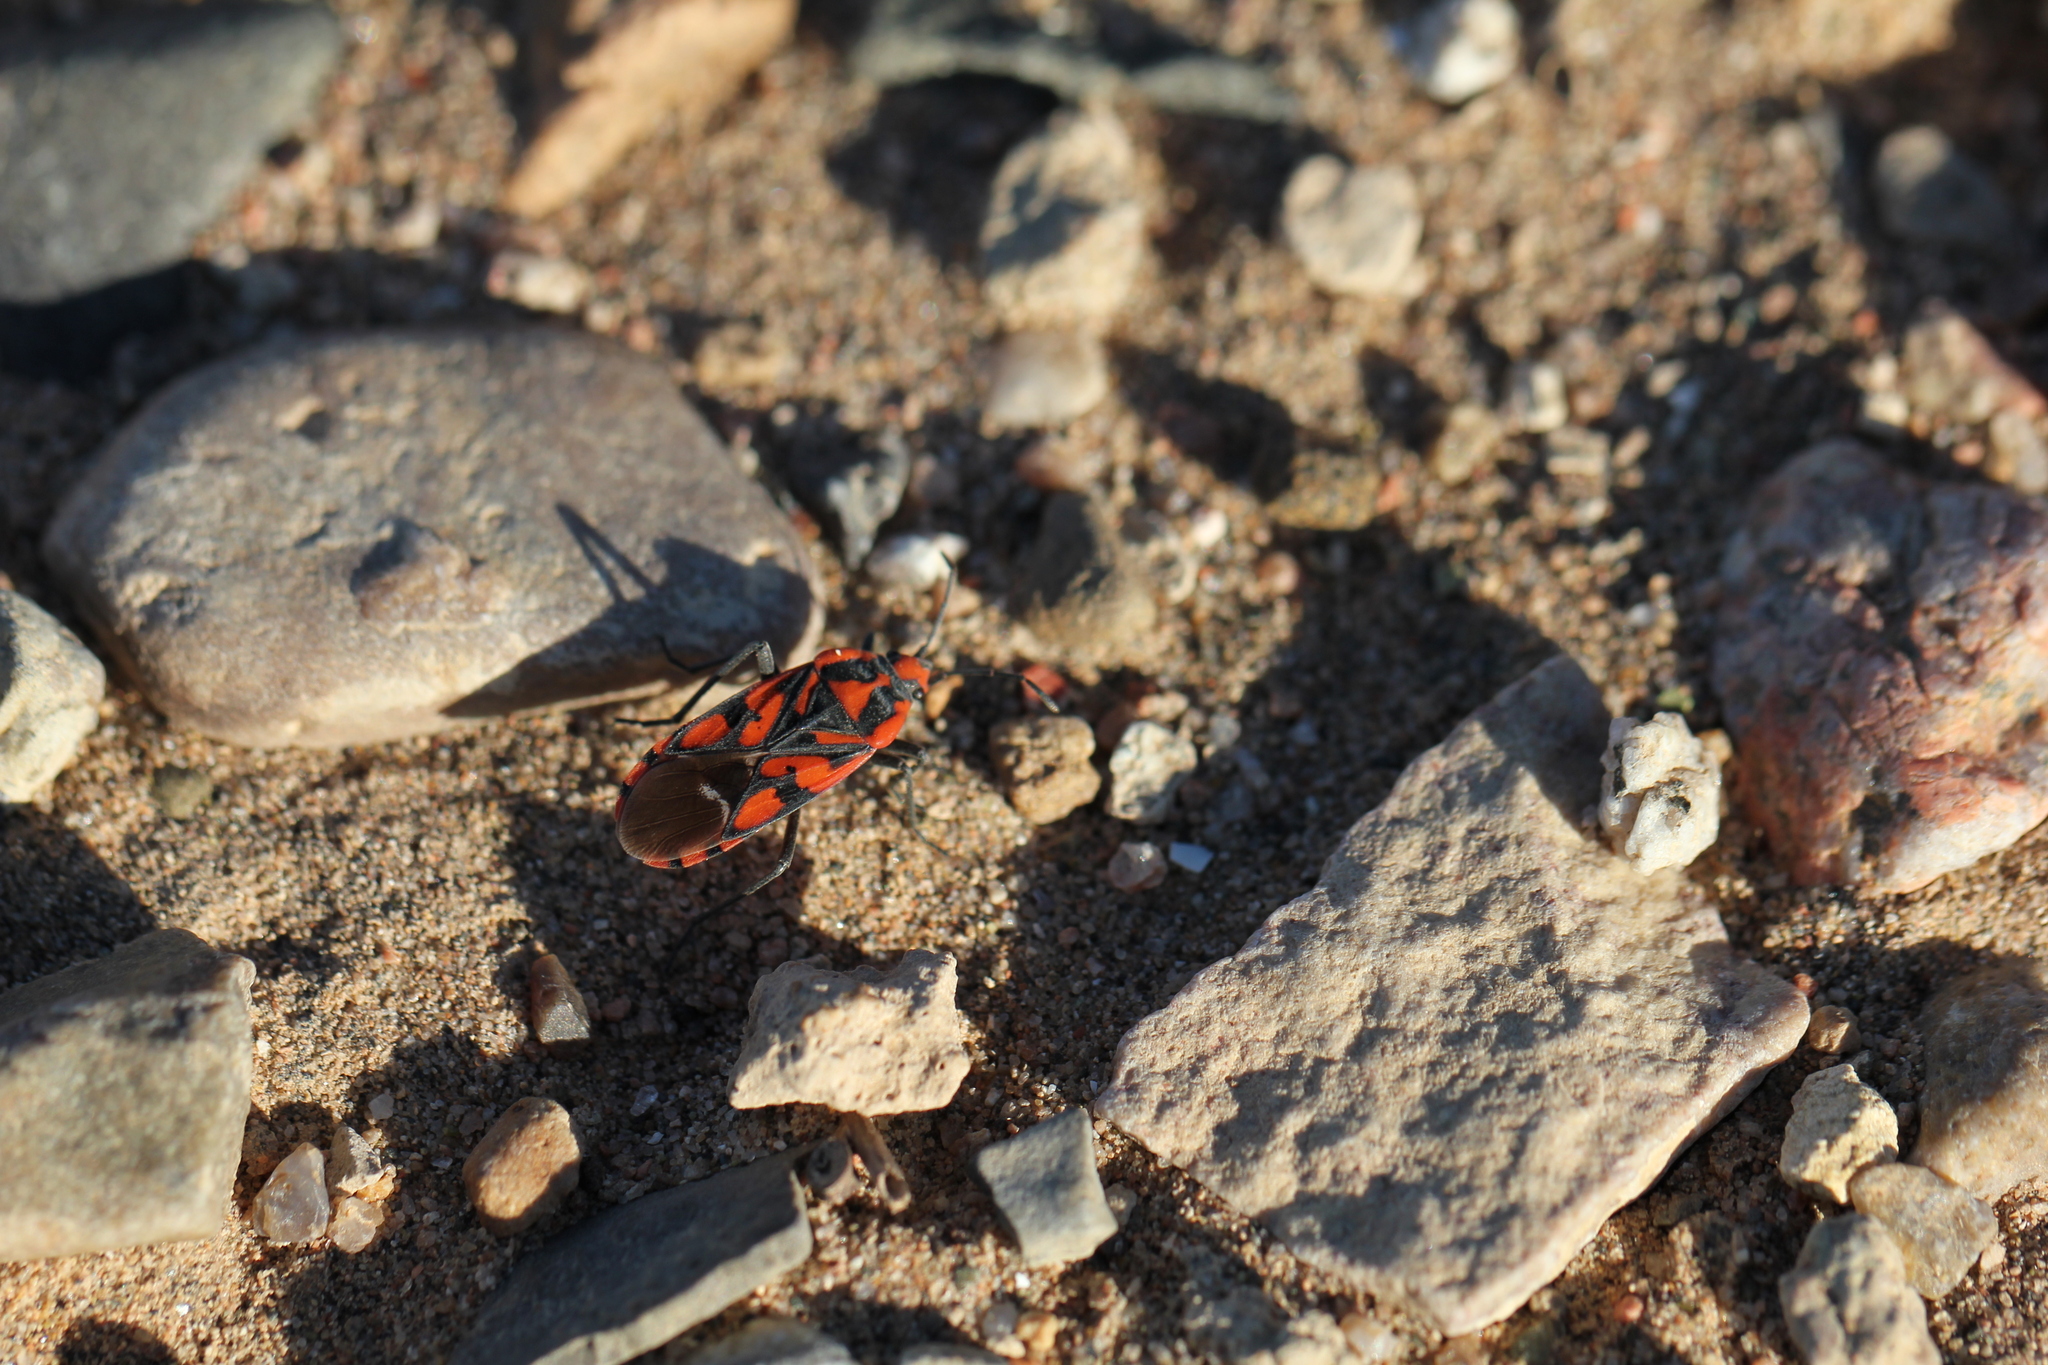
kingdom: Animalia
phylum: Arthropoda
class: Insecta
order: Hemiptera
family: Lygaeidae
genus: Spilostethus
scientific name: Spilostethus saxatilis
